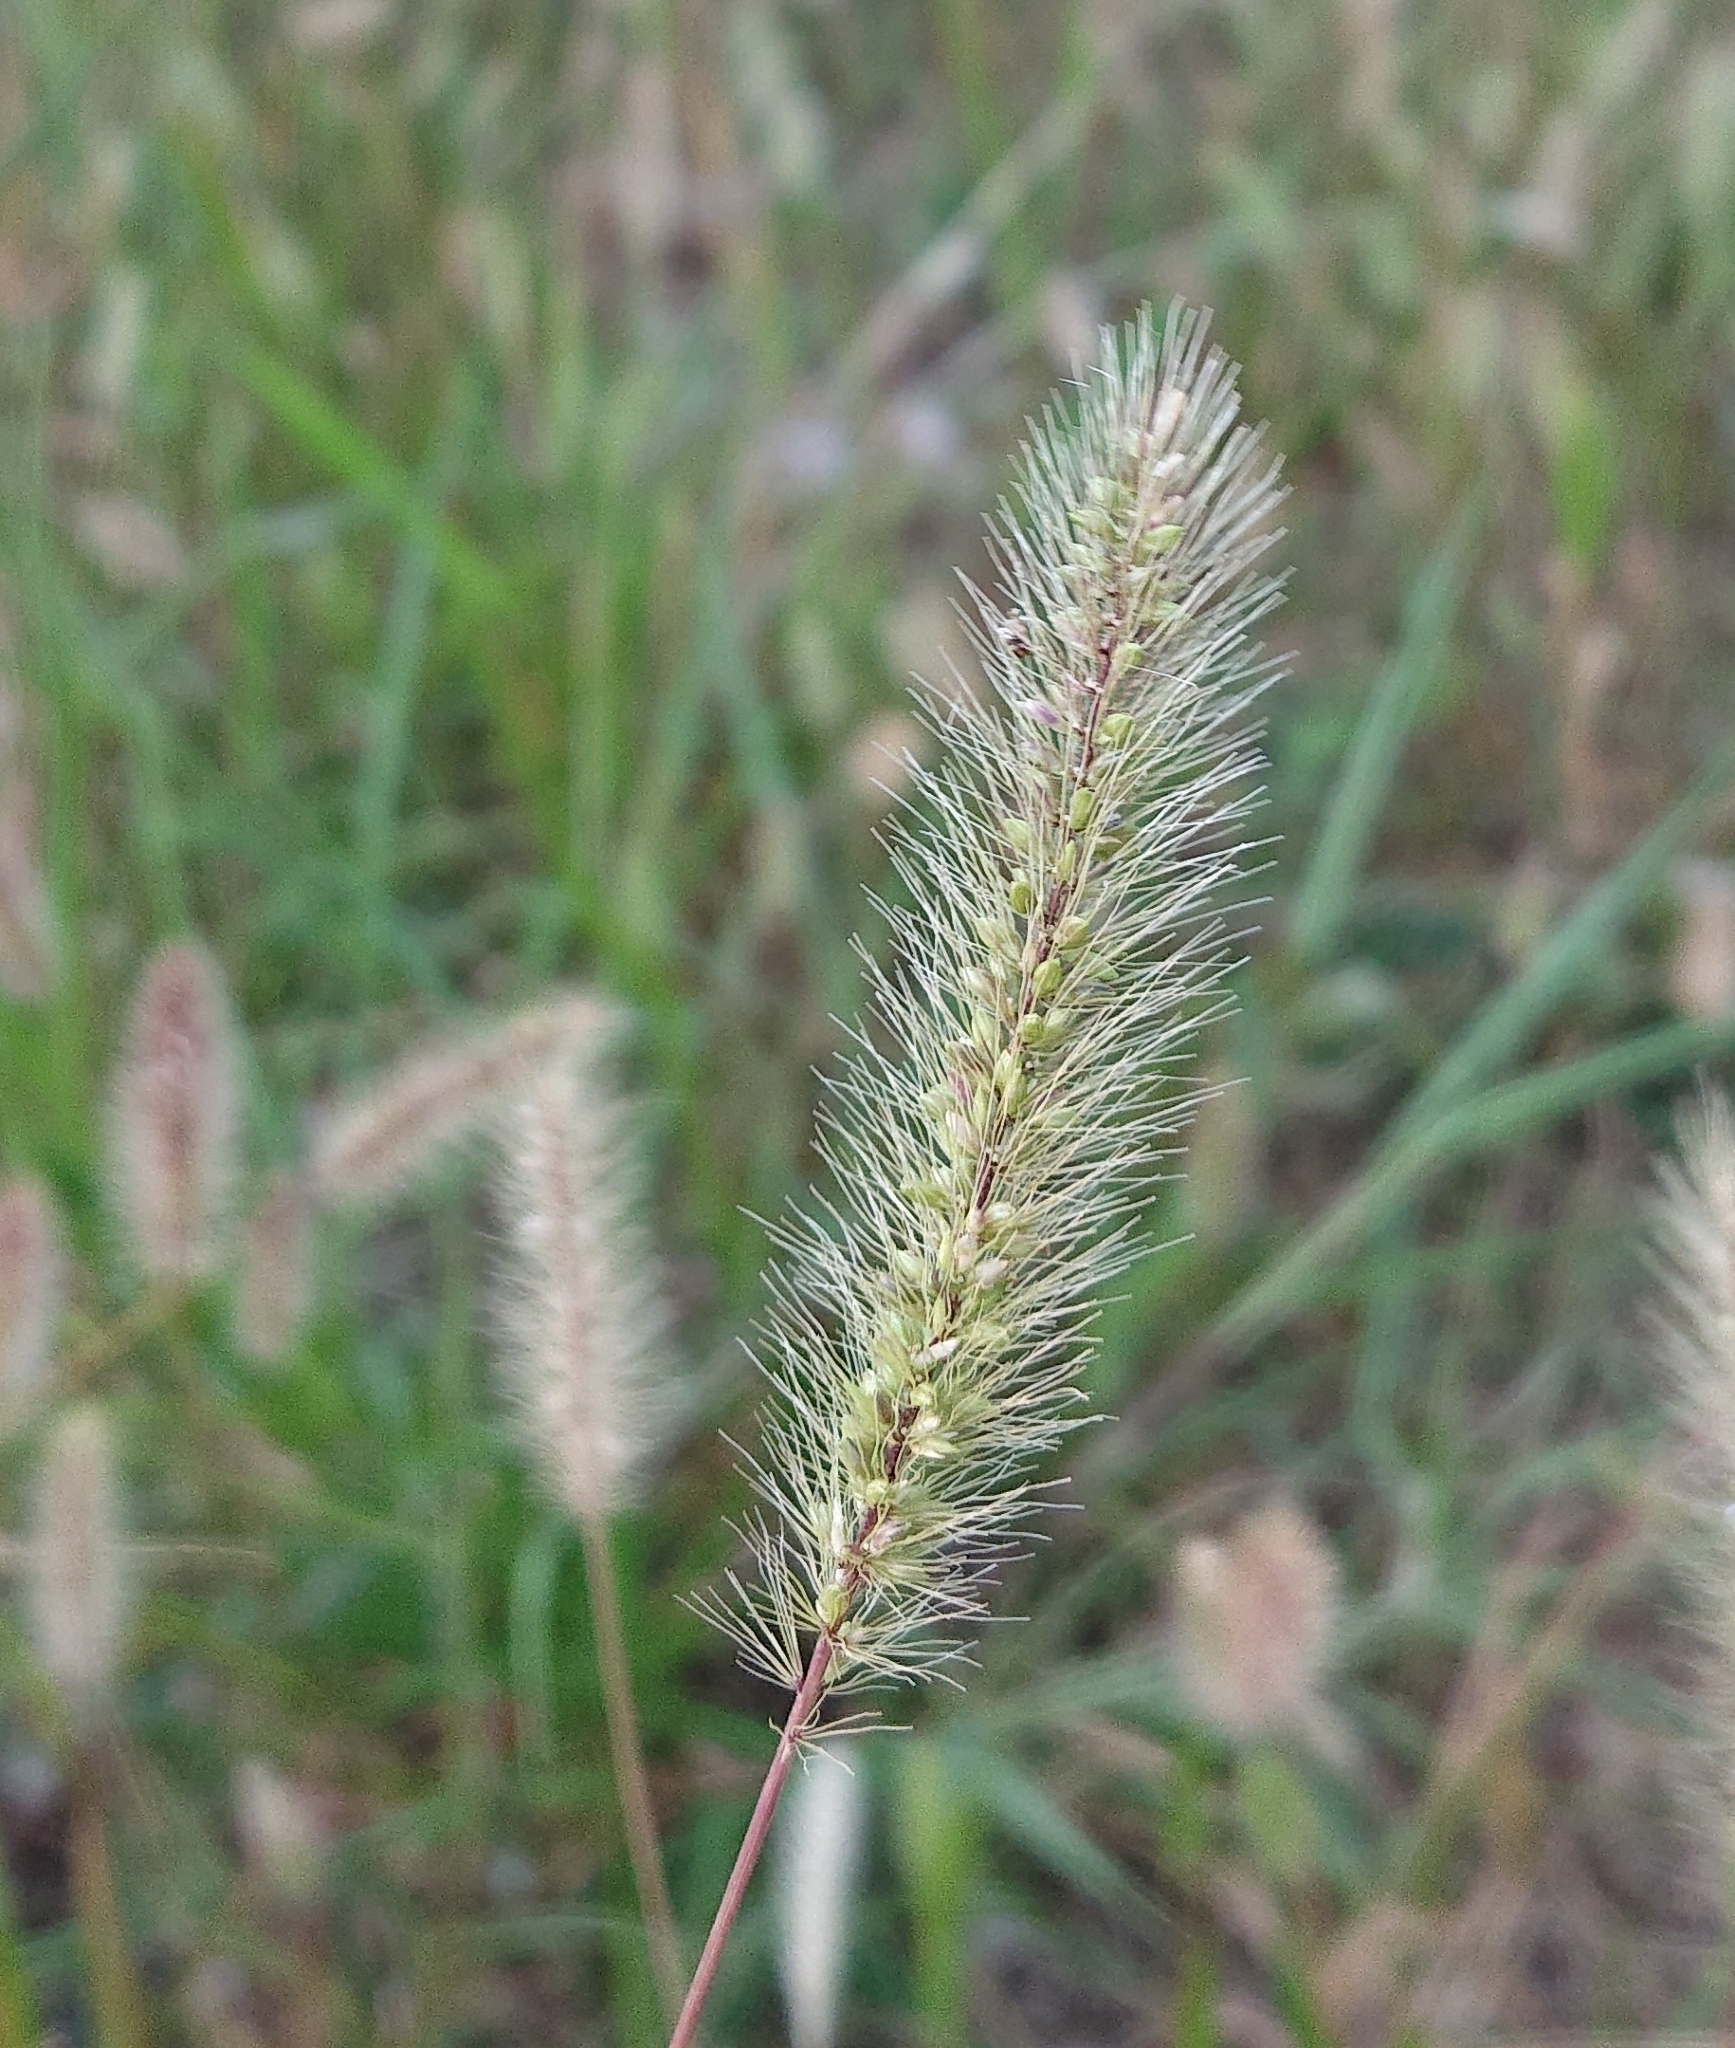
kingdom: Plantae
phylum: Tracheophyta
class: Liliopsida
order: Poales
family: Poaceae
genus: Setaria
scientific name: Setaria viridis
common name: Green bristlegrass
